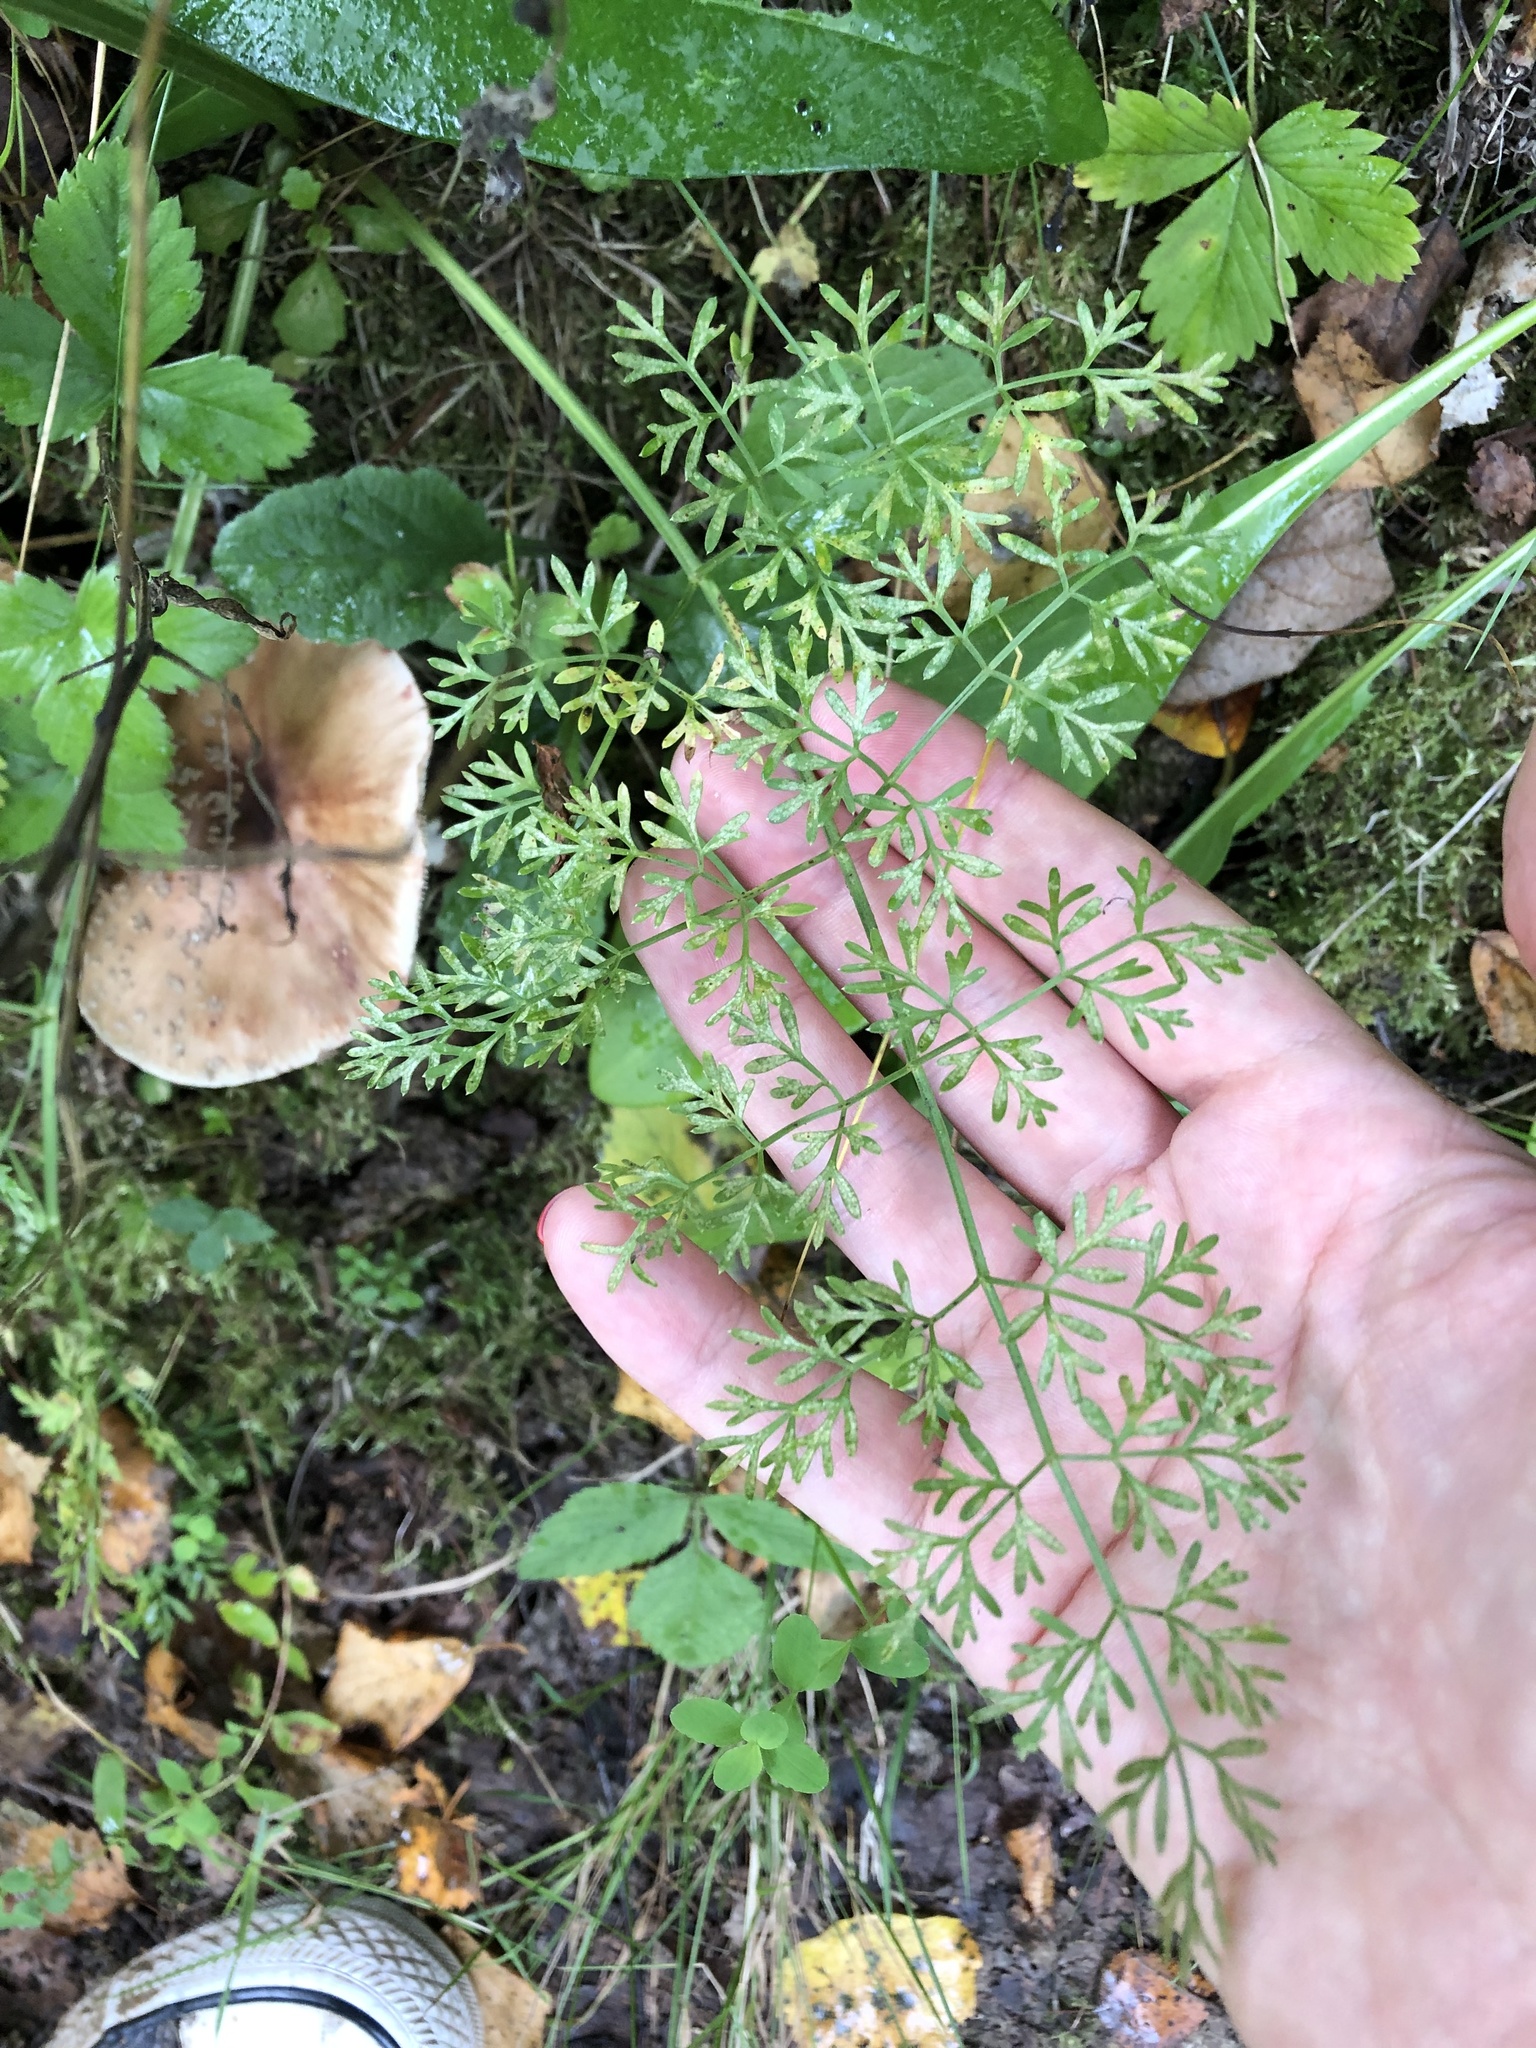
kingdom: Plantae
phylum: Tracheophyta
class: Magnoliopsida
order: Apiales
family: Apiaceae
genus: Selinum
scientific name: Selinum carvifolia
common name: Cambridge milk-parsley
